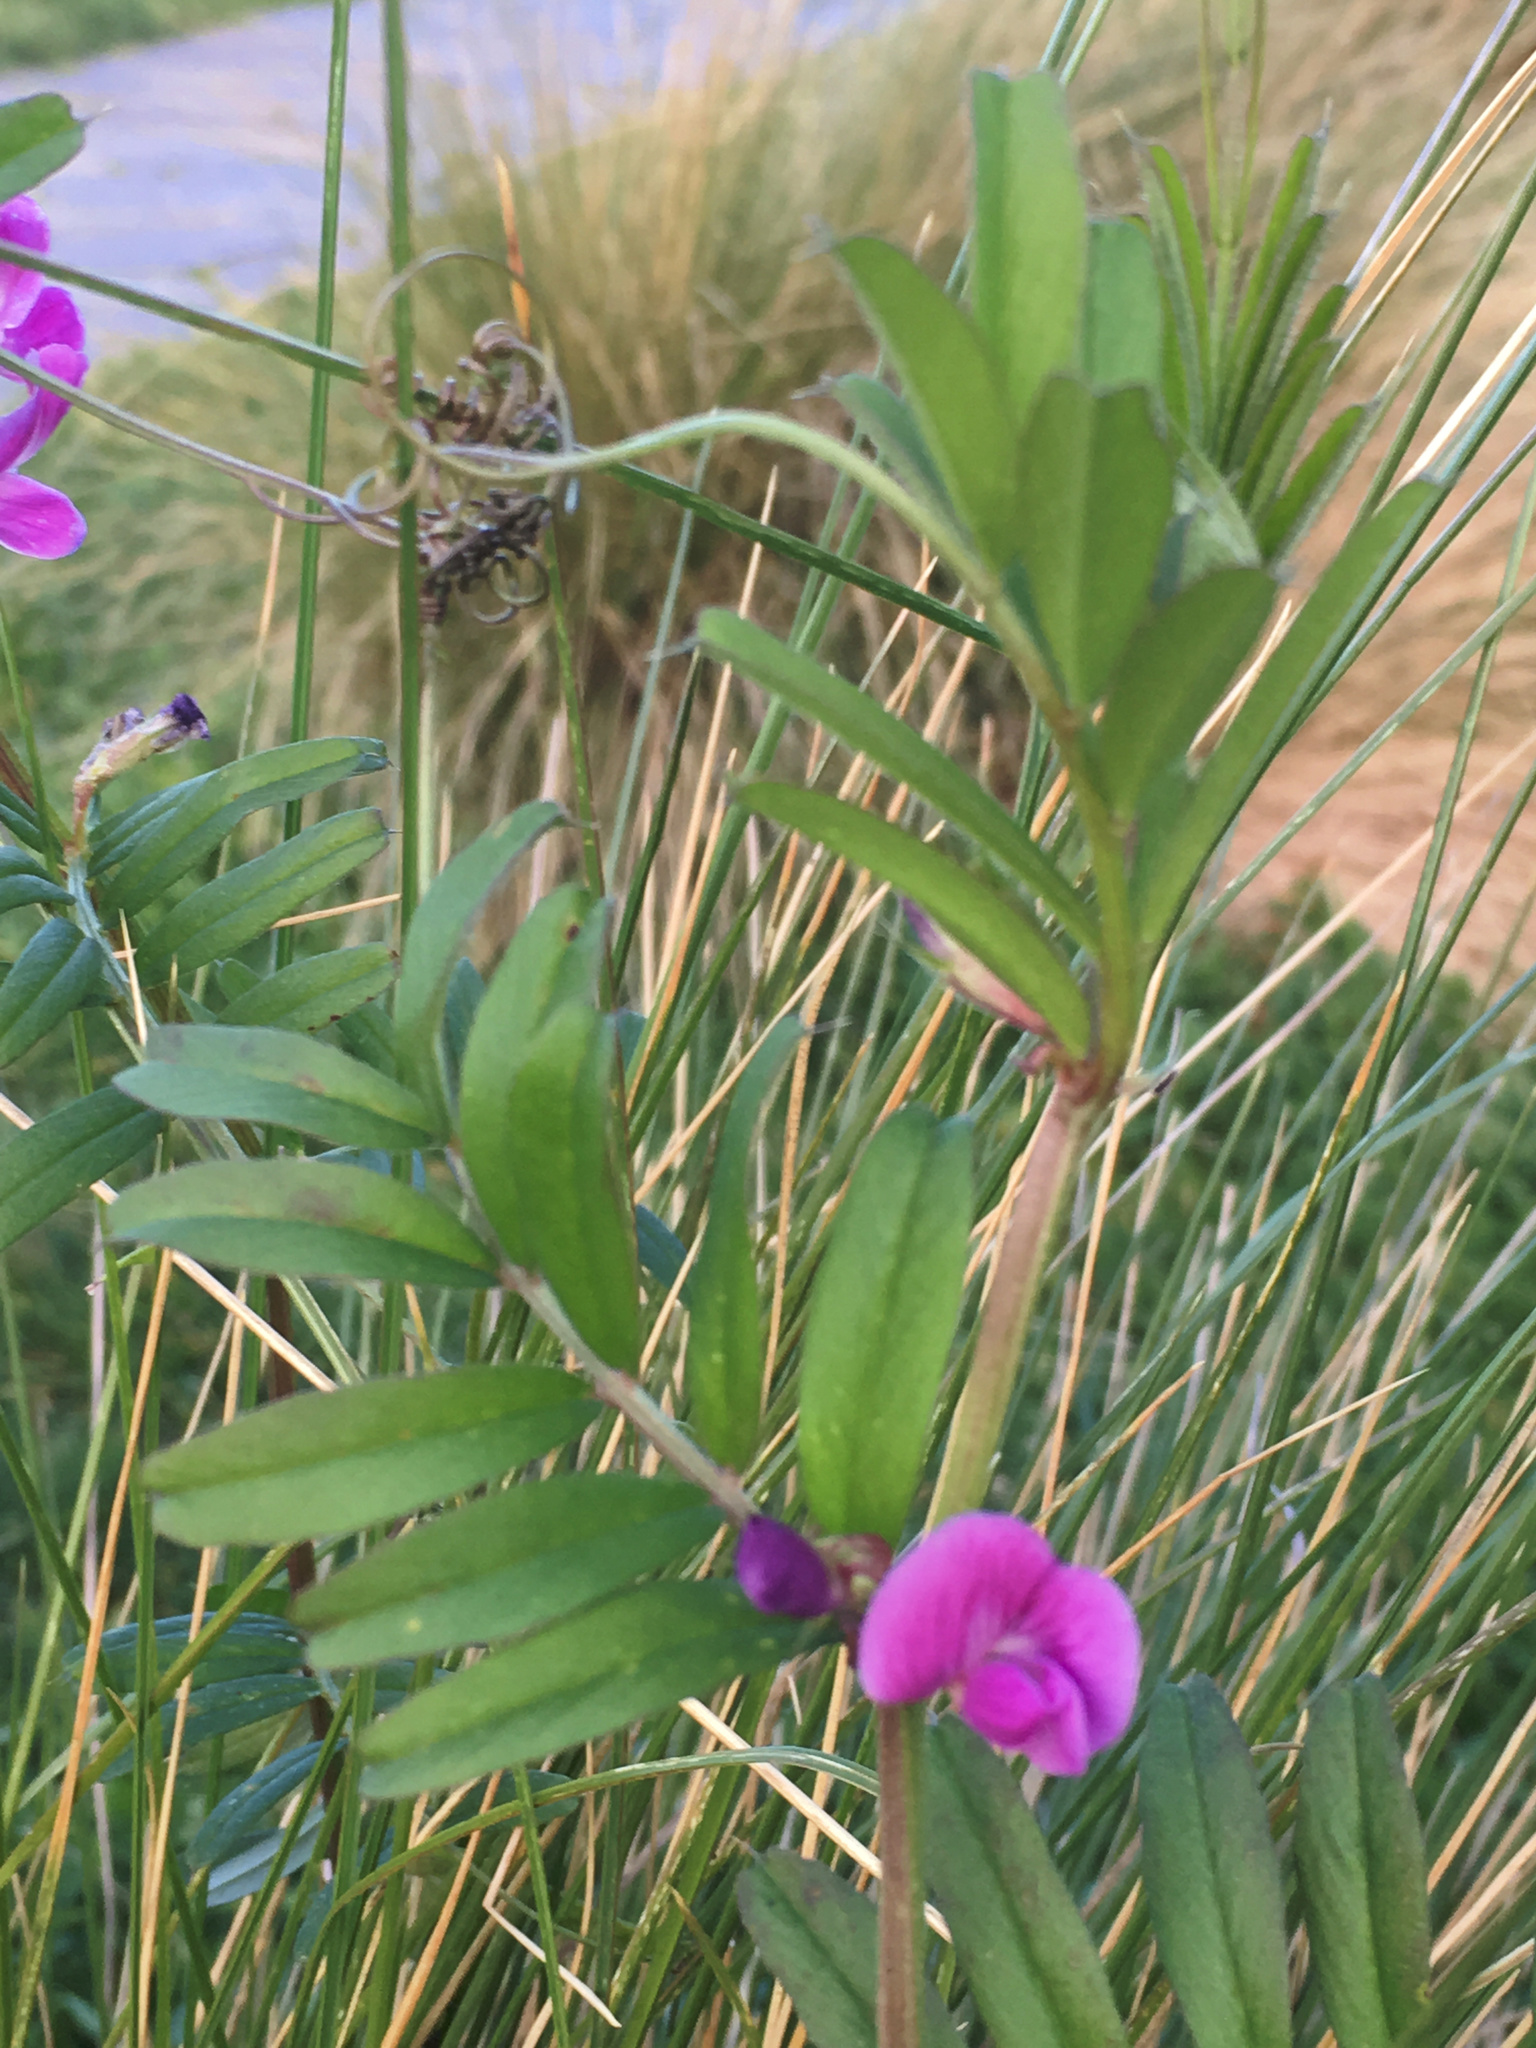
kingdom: Plantae
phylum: Tracheophyta
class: Magnoliopsida
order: Fabales
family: Fabaceae
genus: Vicia
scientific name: Vicia sativa
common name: Garden vetch
